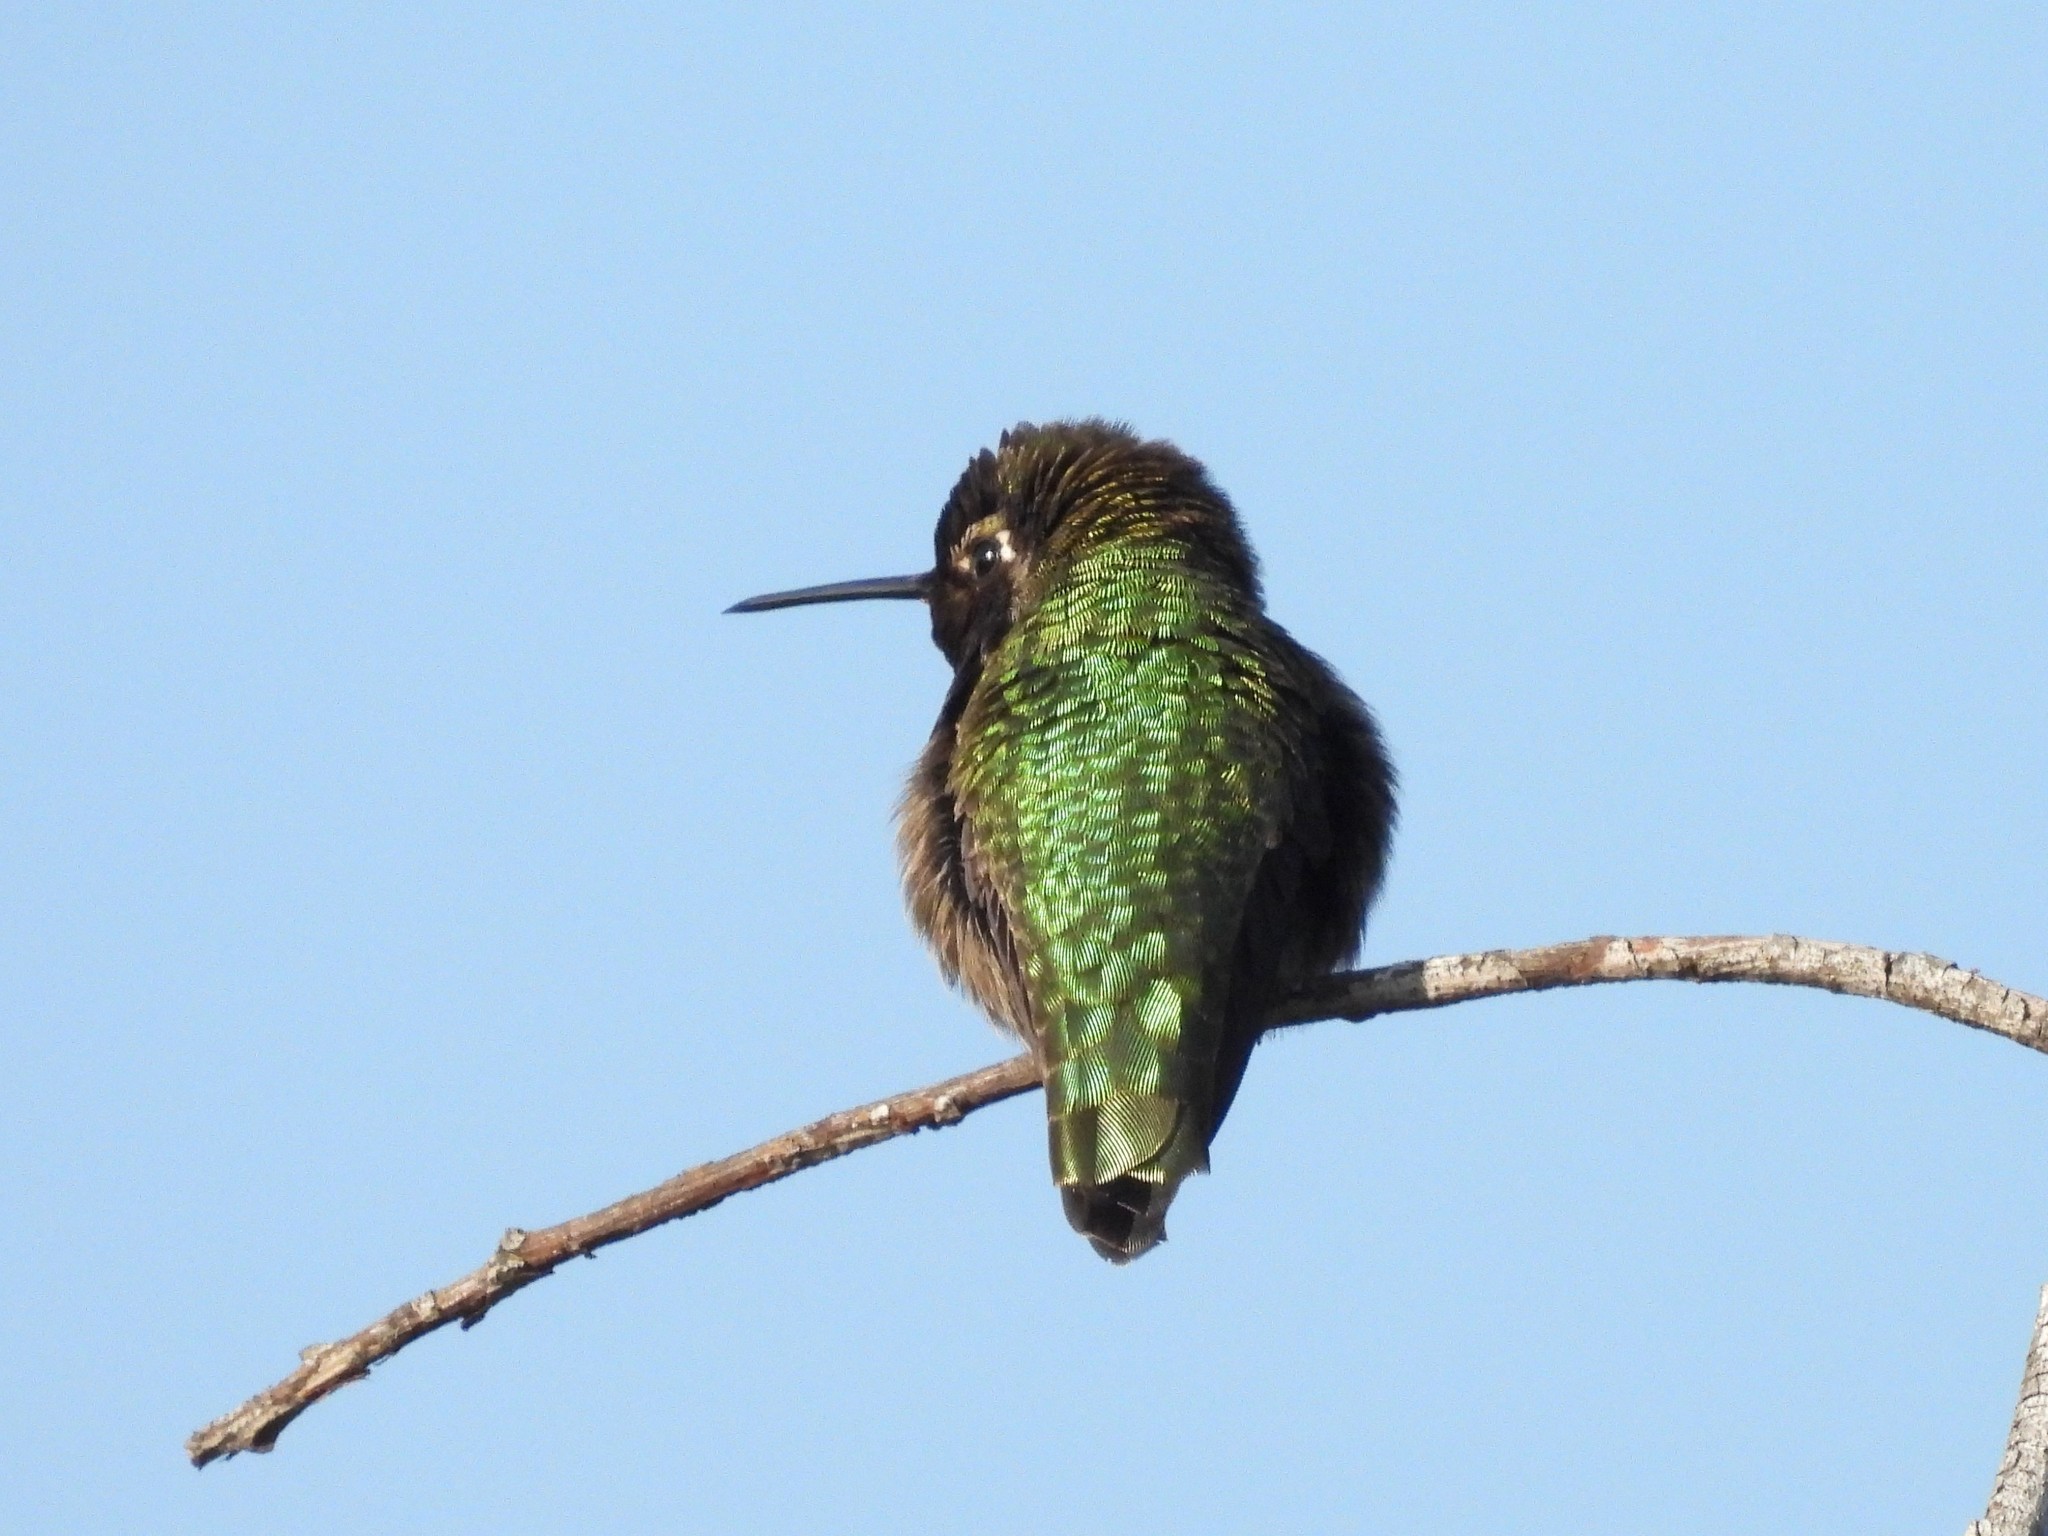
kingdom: Animalia
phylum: Chordata
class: Aves
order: Apodiformes
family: Trochilidae
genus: Calypte
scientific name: Calypte anna
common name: Anna's hummingbird
